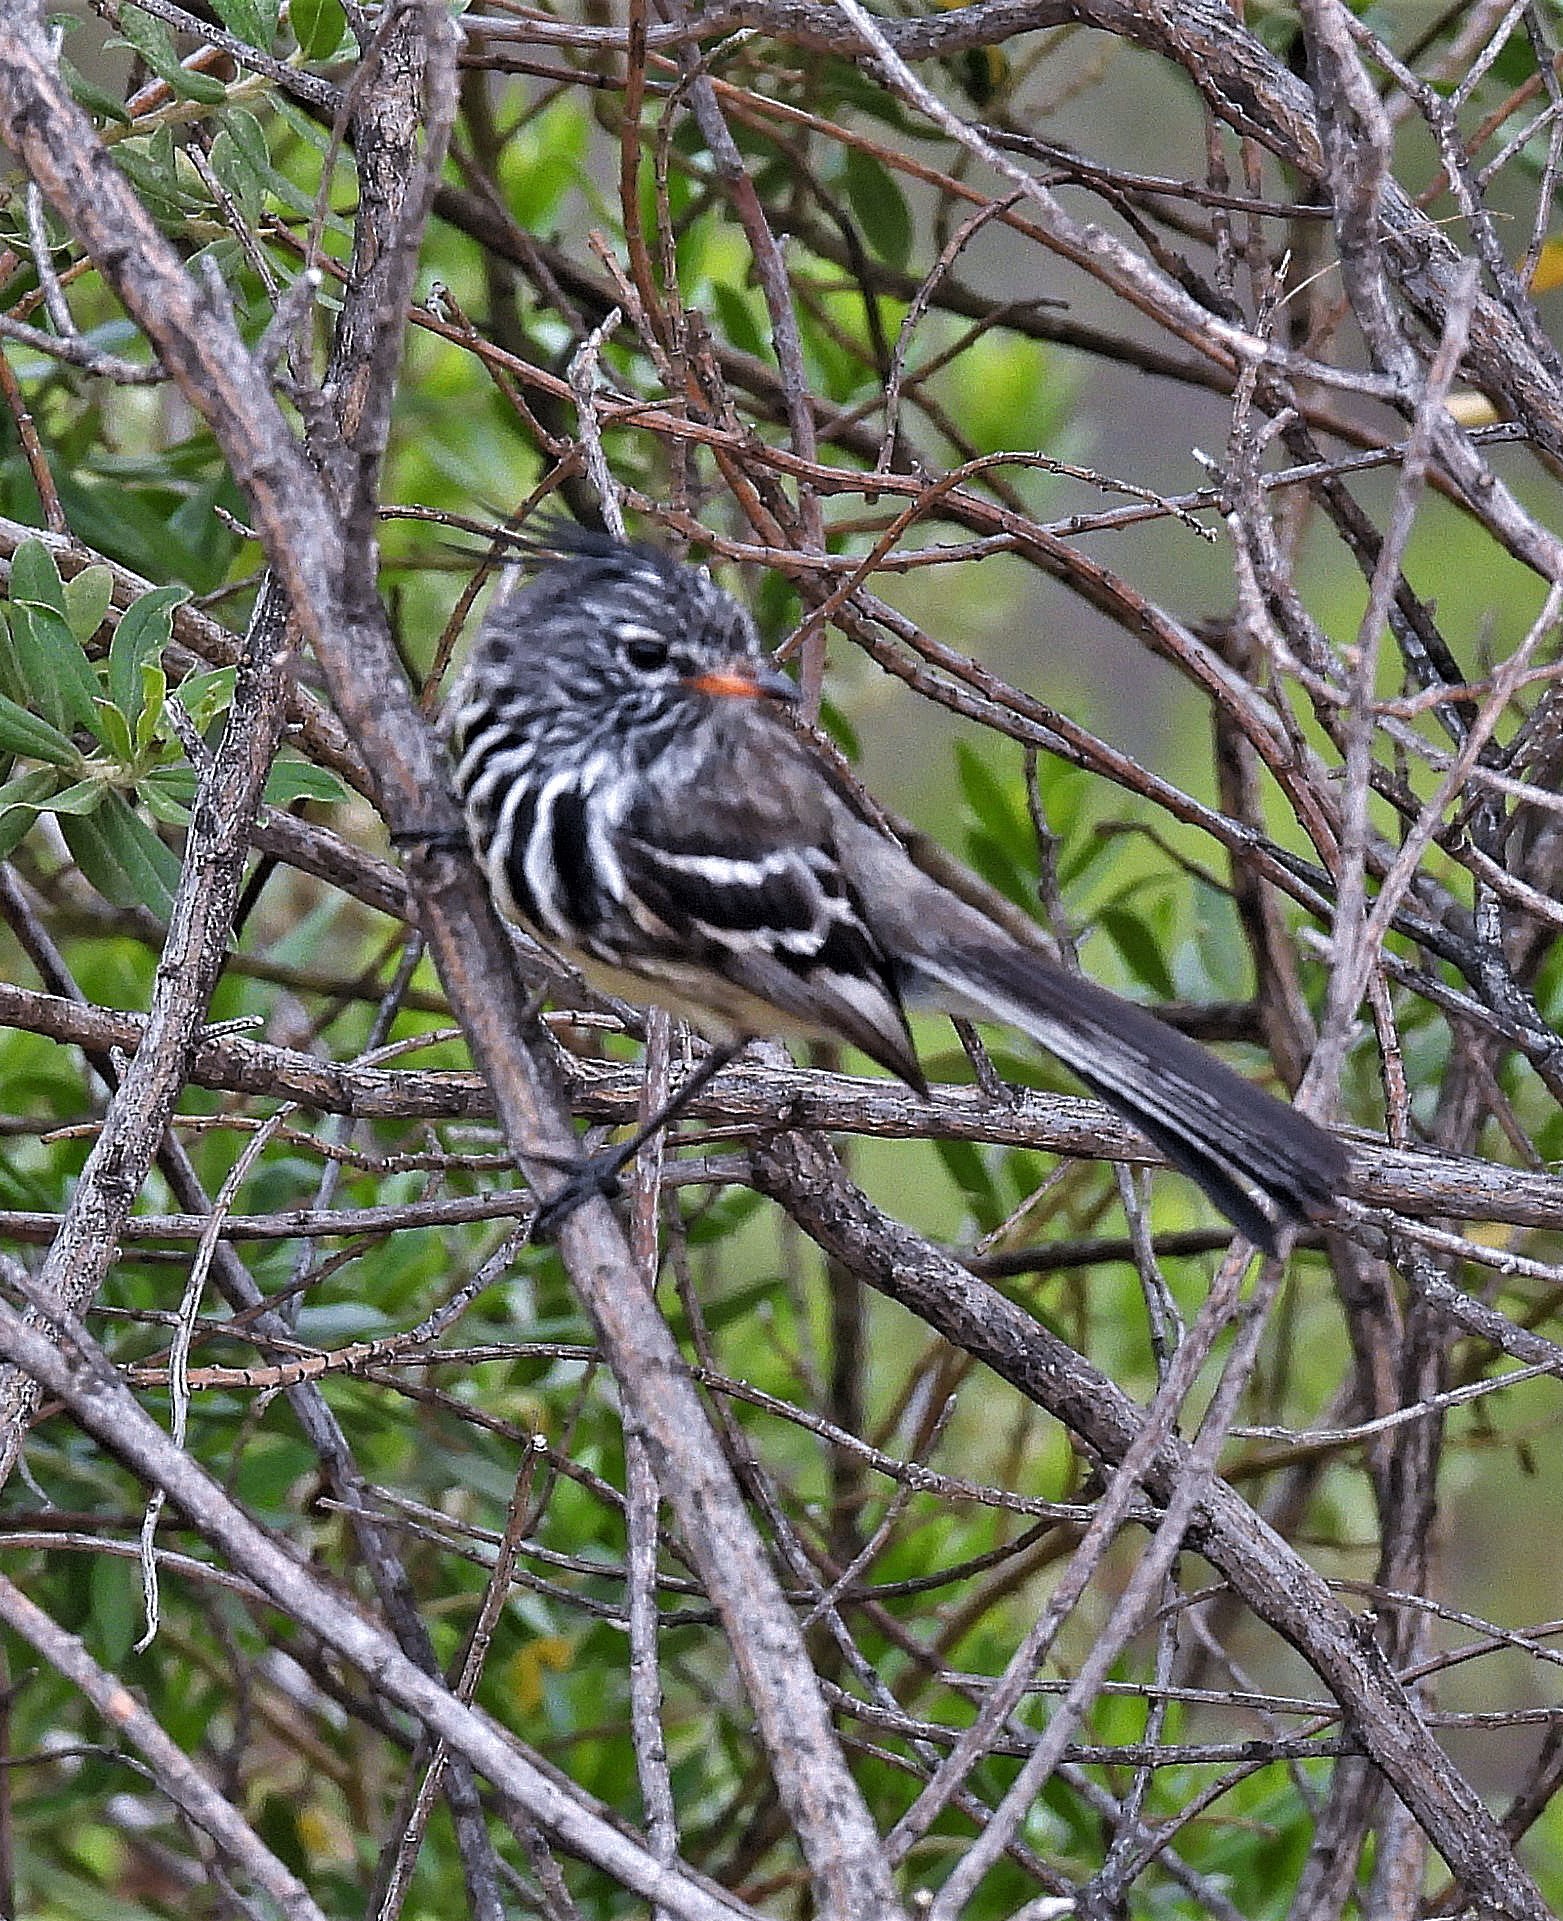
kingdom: Animalia
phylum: Chordata
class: Aves
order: Passeriformes
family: Tyrannidae
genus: Anairetes
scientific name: Anairetes flavirostris
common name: Yellow-billed tit-tyrant
